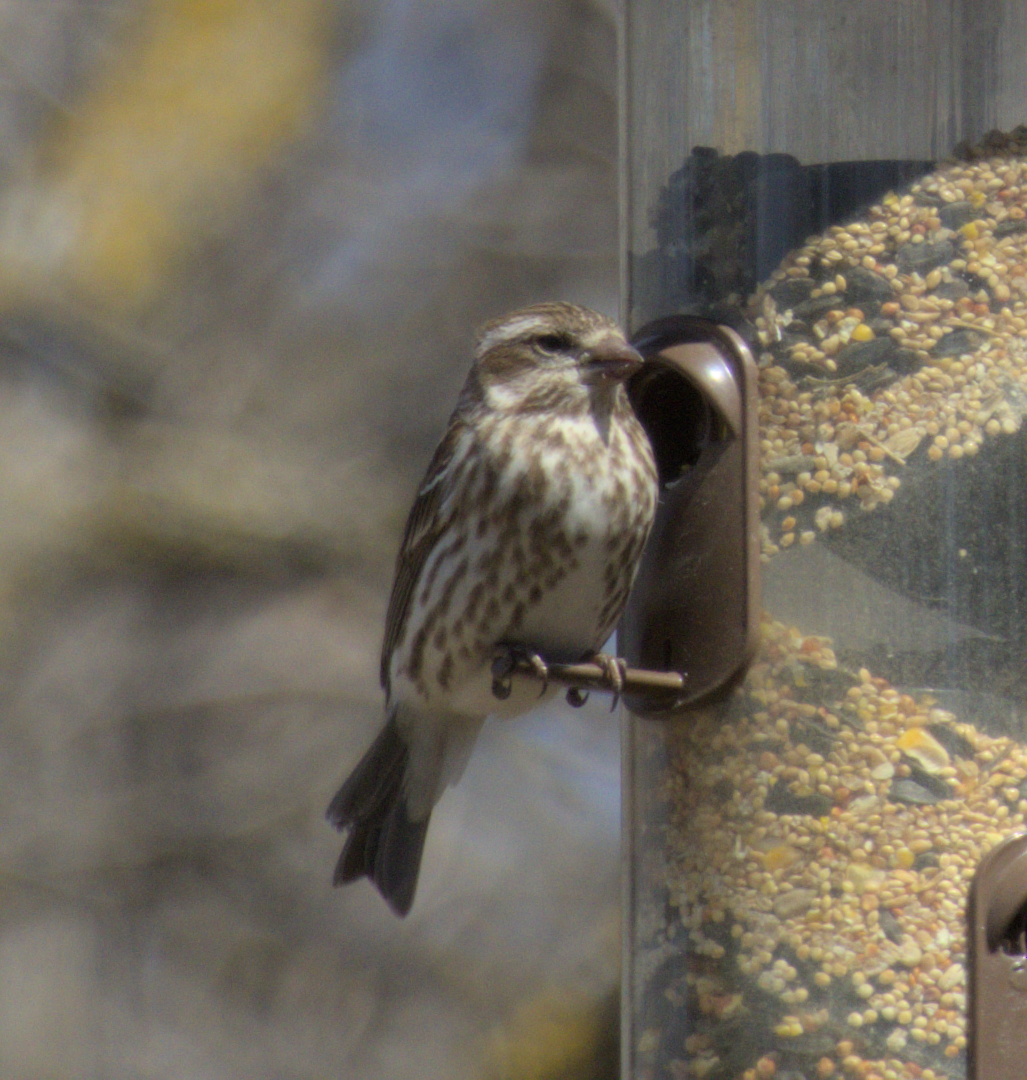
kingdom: Animalia
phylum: Chordata
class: Aves
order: Passeriformes
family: Fringillidae
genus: Haemorhous
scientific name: Haemorhous purpureus
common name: Purple finch
